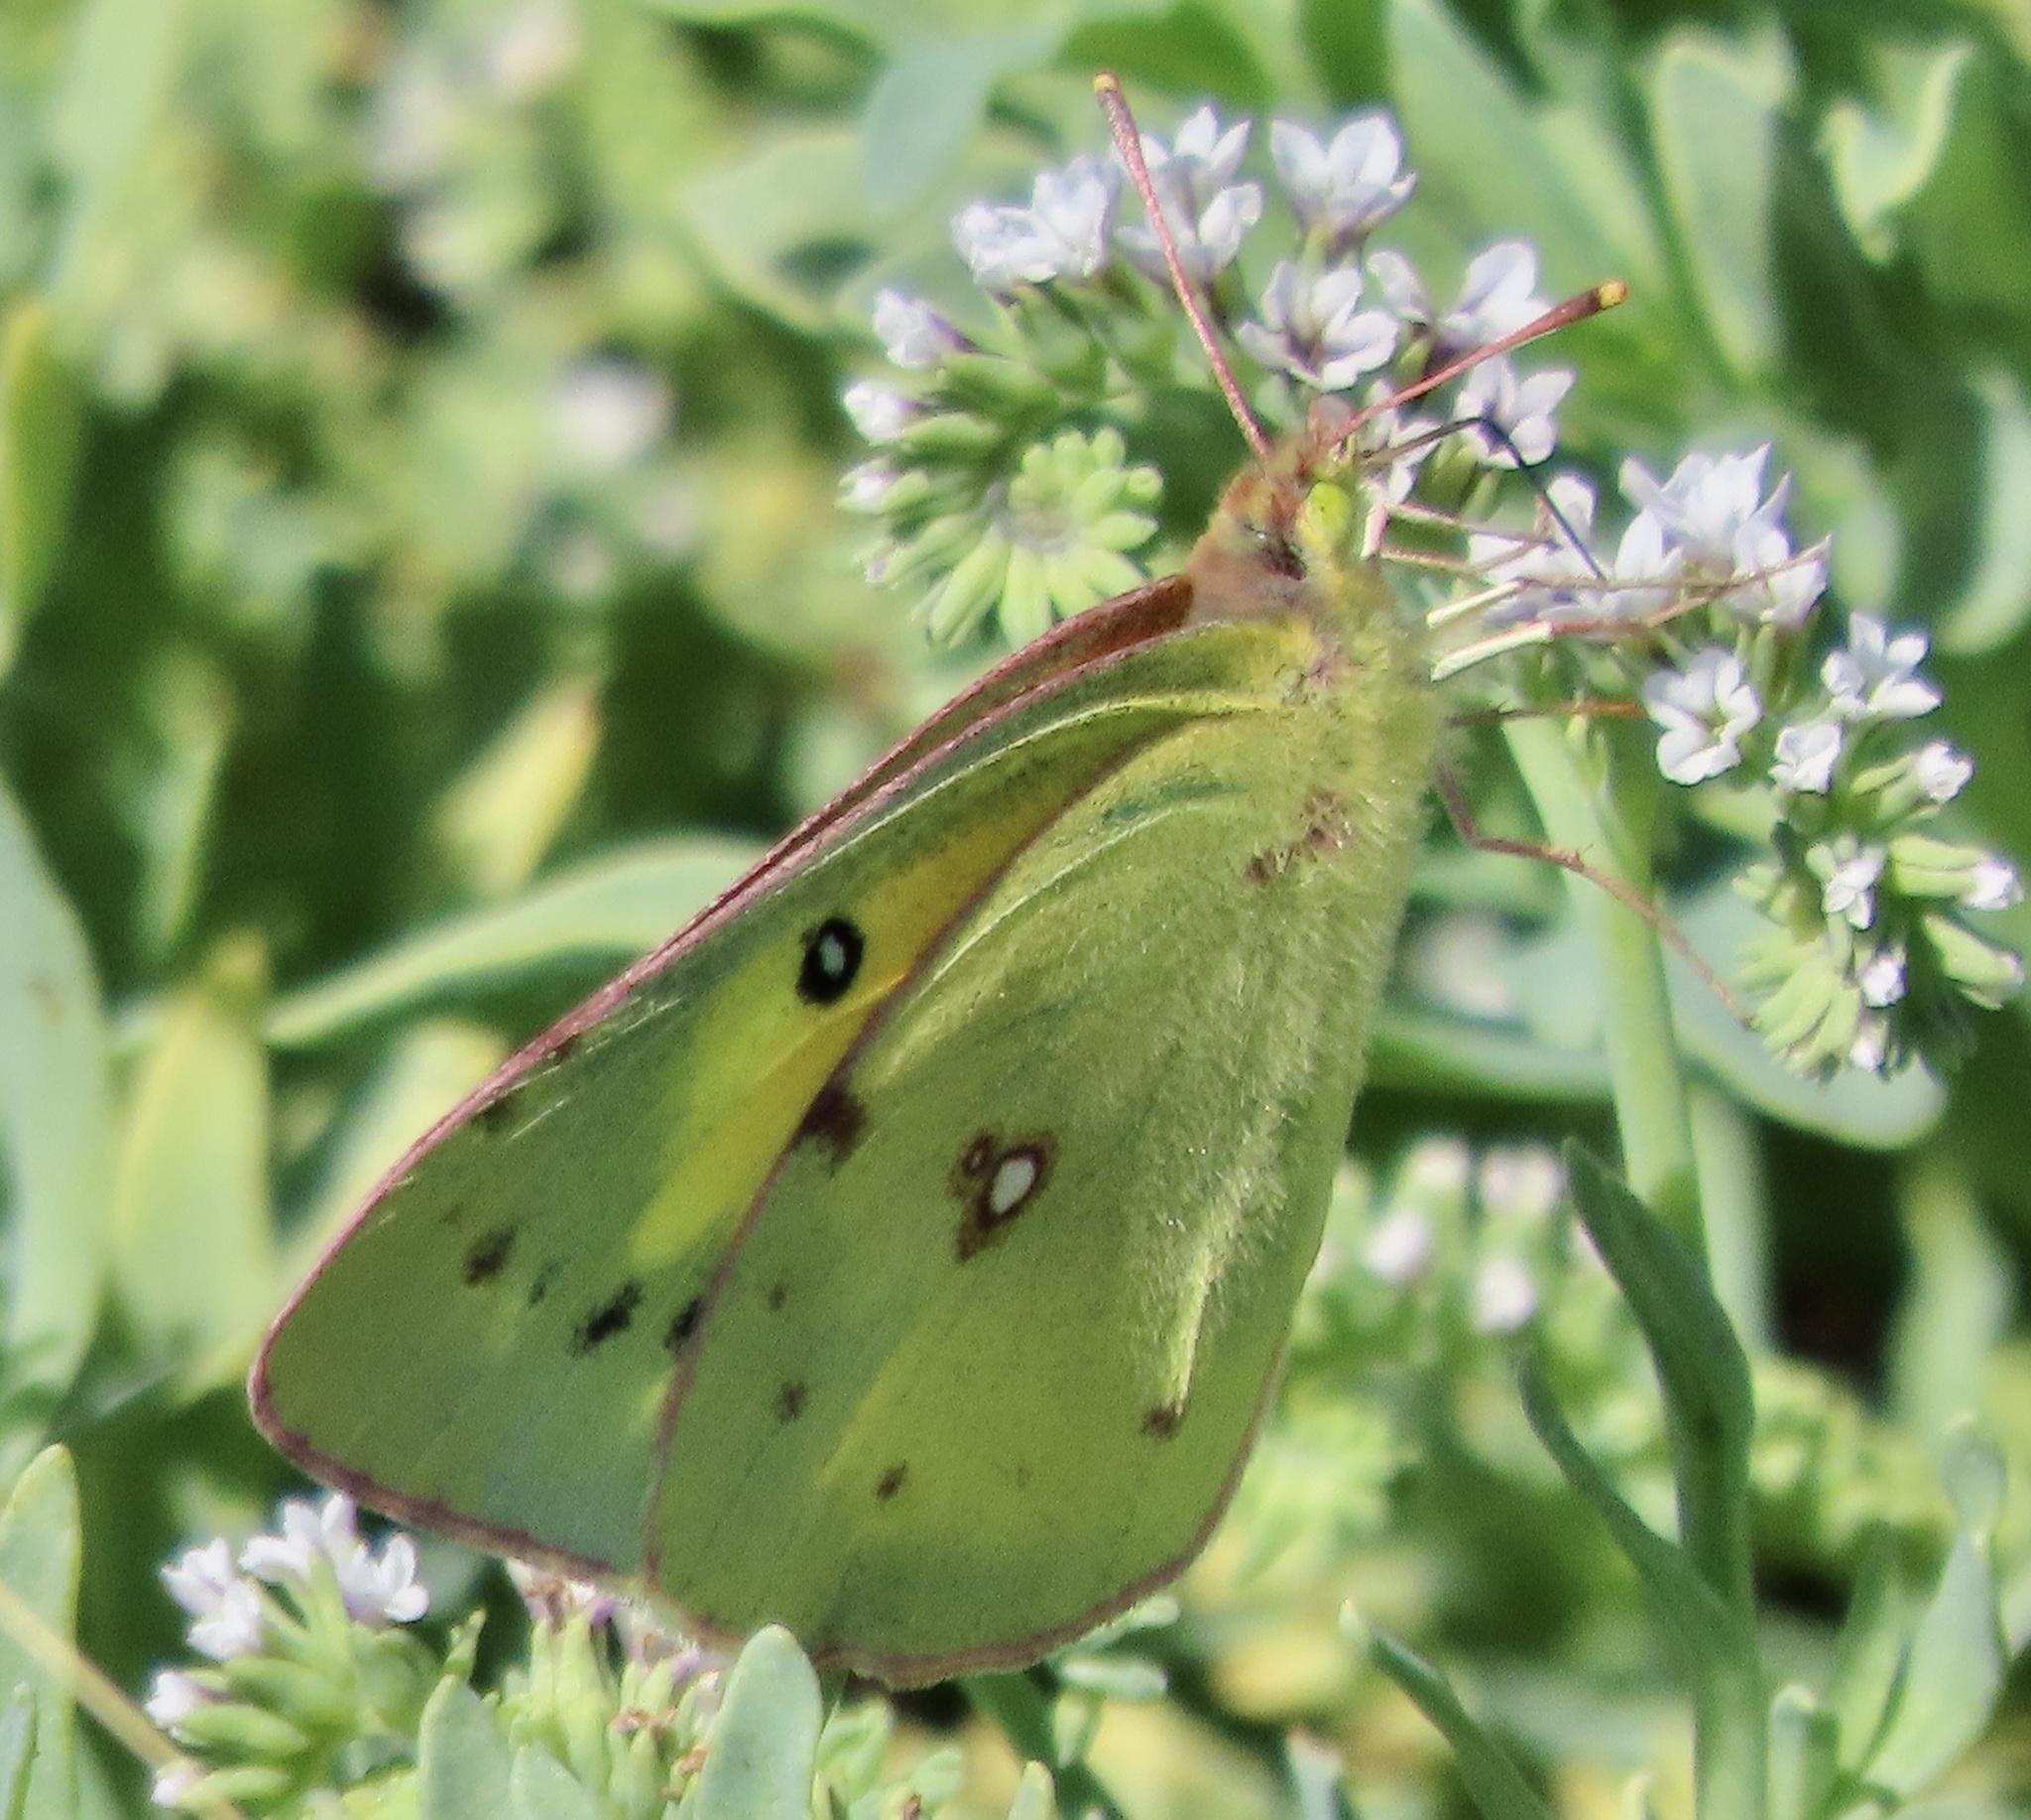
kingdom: Animalia
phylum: Arthropoda
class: Insecta
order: Lepidoptera
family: Pieridae
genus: Colias
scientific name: Colias eurytheme
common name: Alfalfa butterfly
